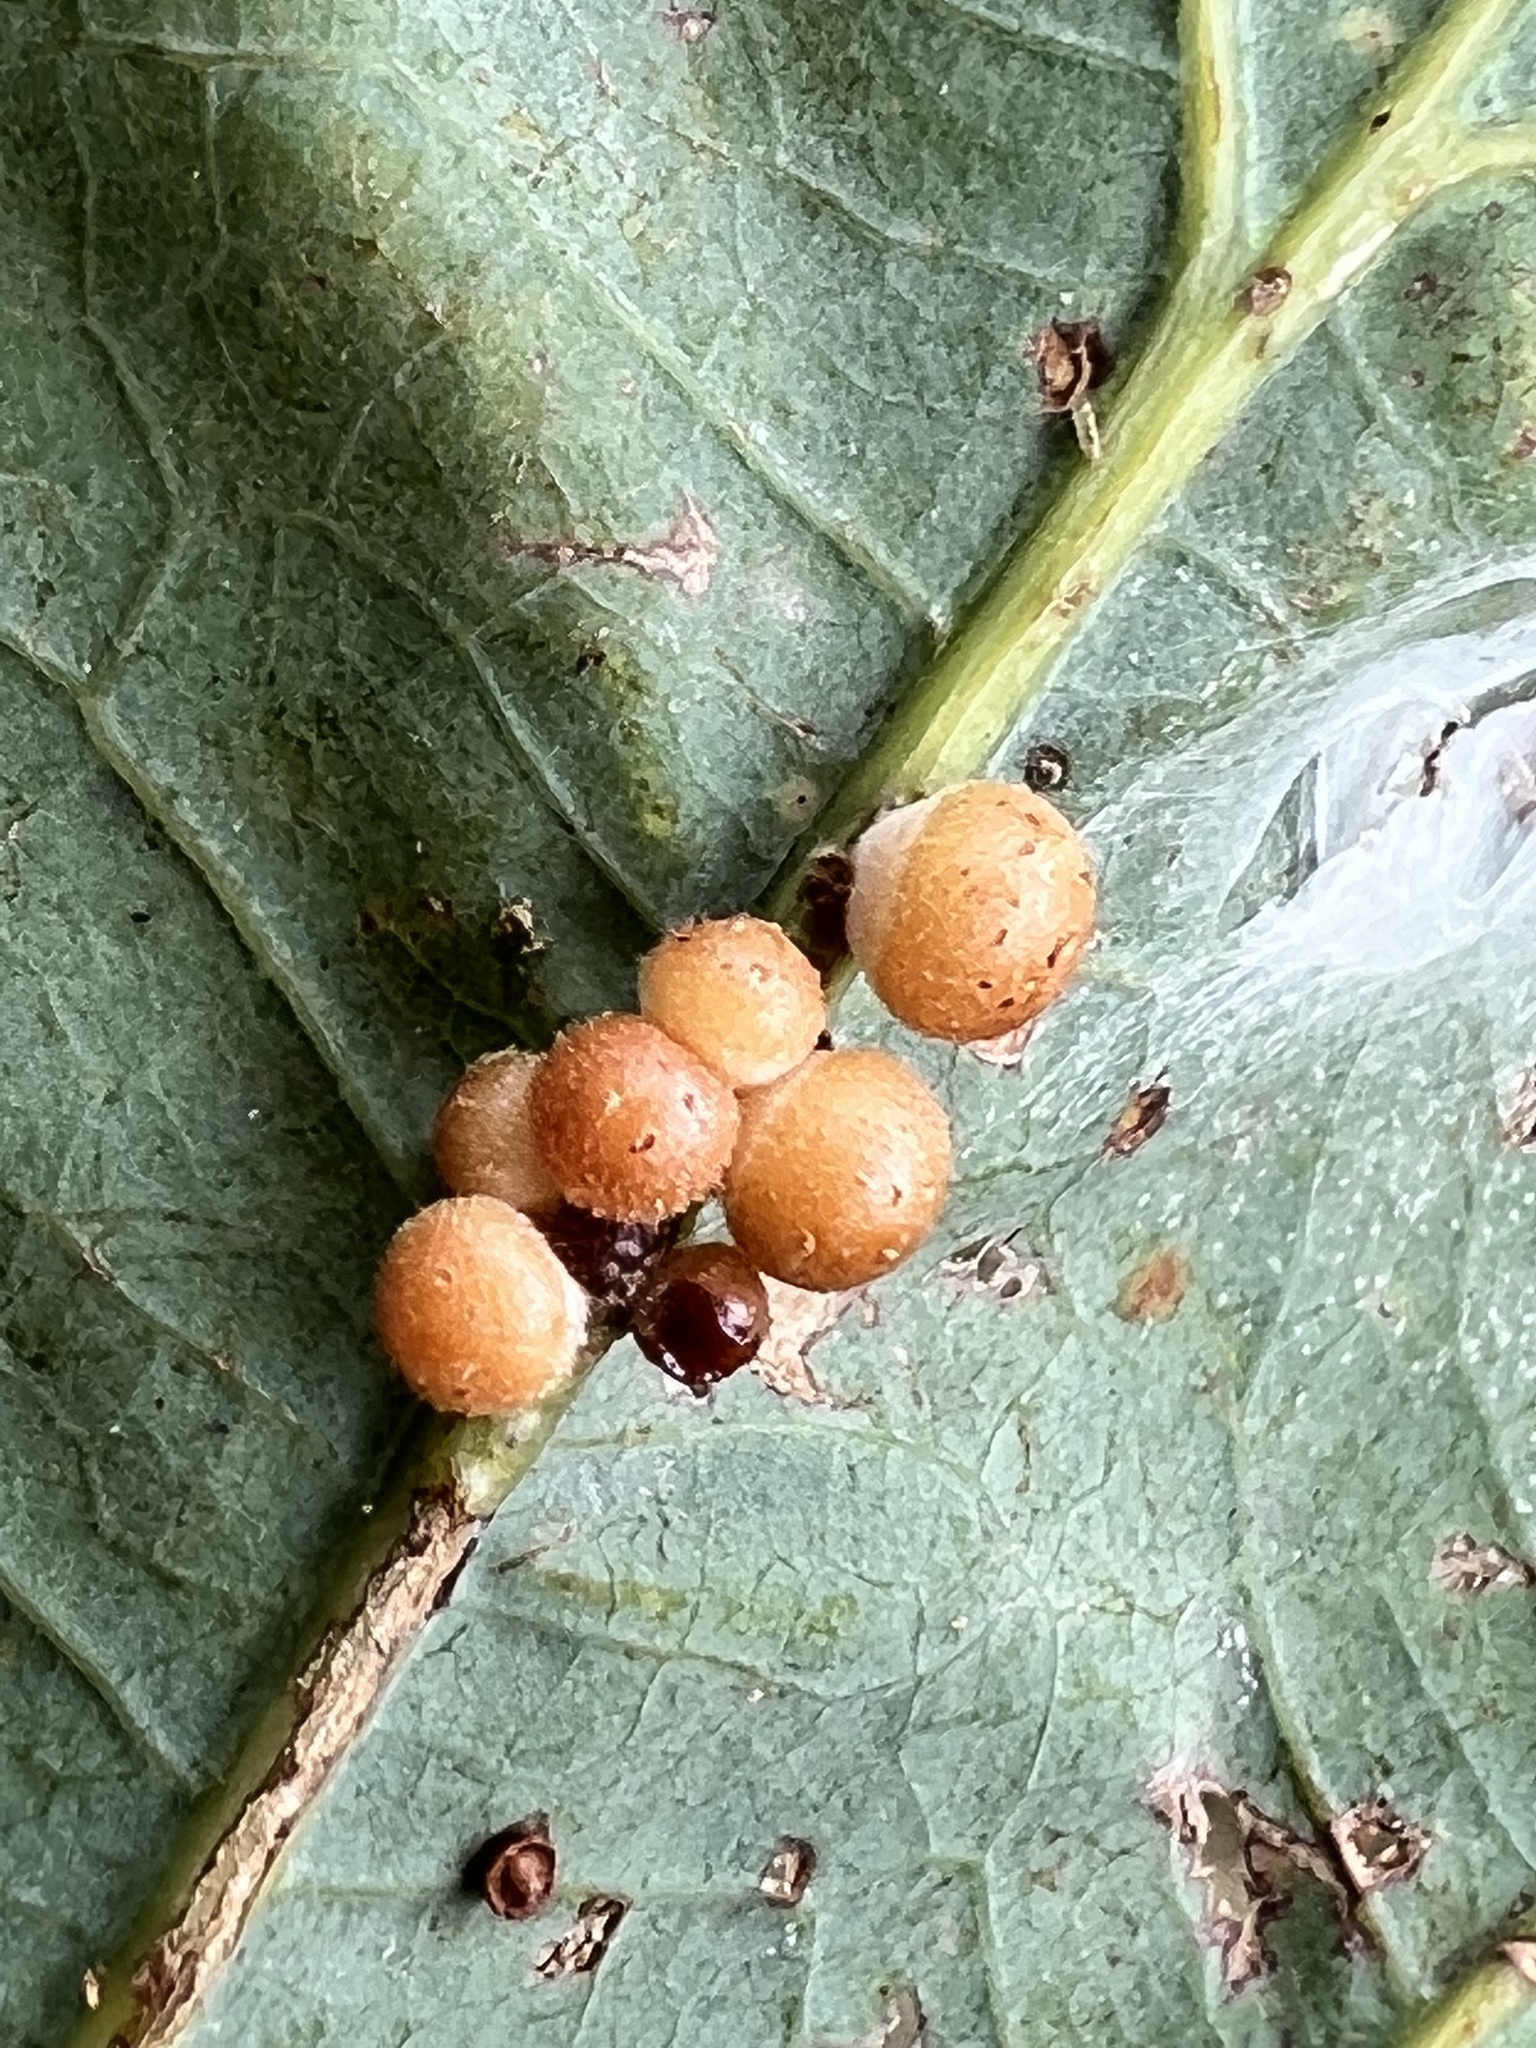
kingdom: Animalia
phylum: Arthropoda
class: Insecta
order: Hymenoptera
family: Cynipidae
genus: Andricus
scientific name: Andricus
